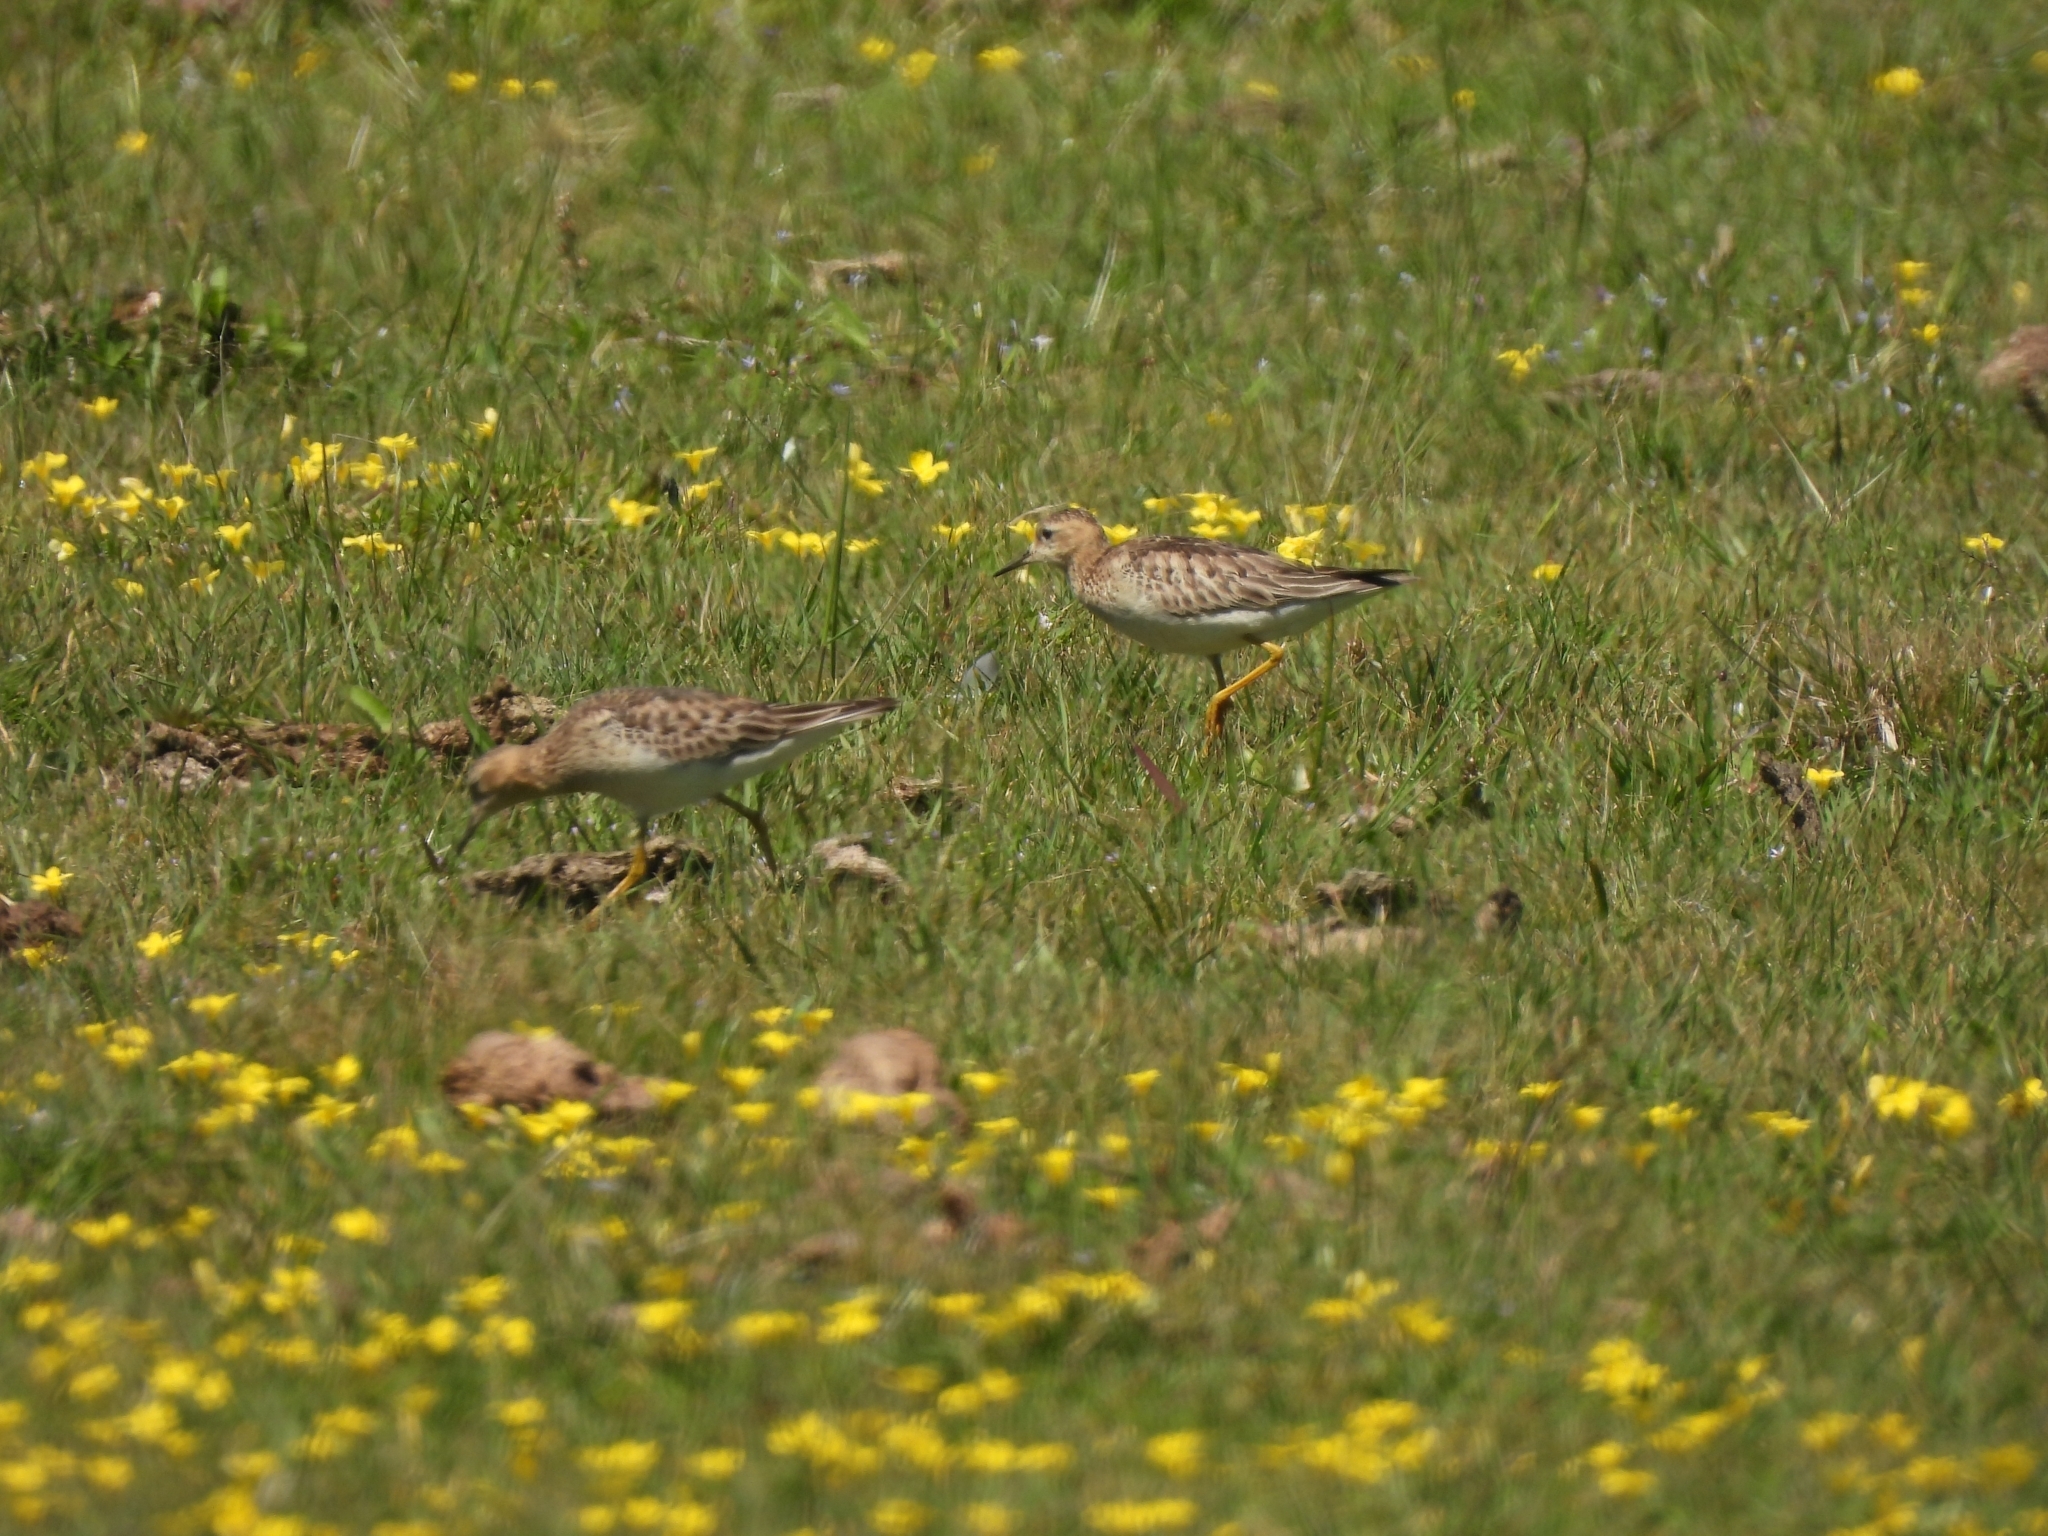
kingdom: Animalia
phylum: Chordata
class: Aves
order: Charadriiformes
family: Scolopacidae
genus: Calidris
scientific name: Calidris subruficollis
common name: Buff-breasted sandpiper
